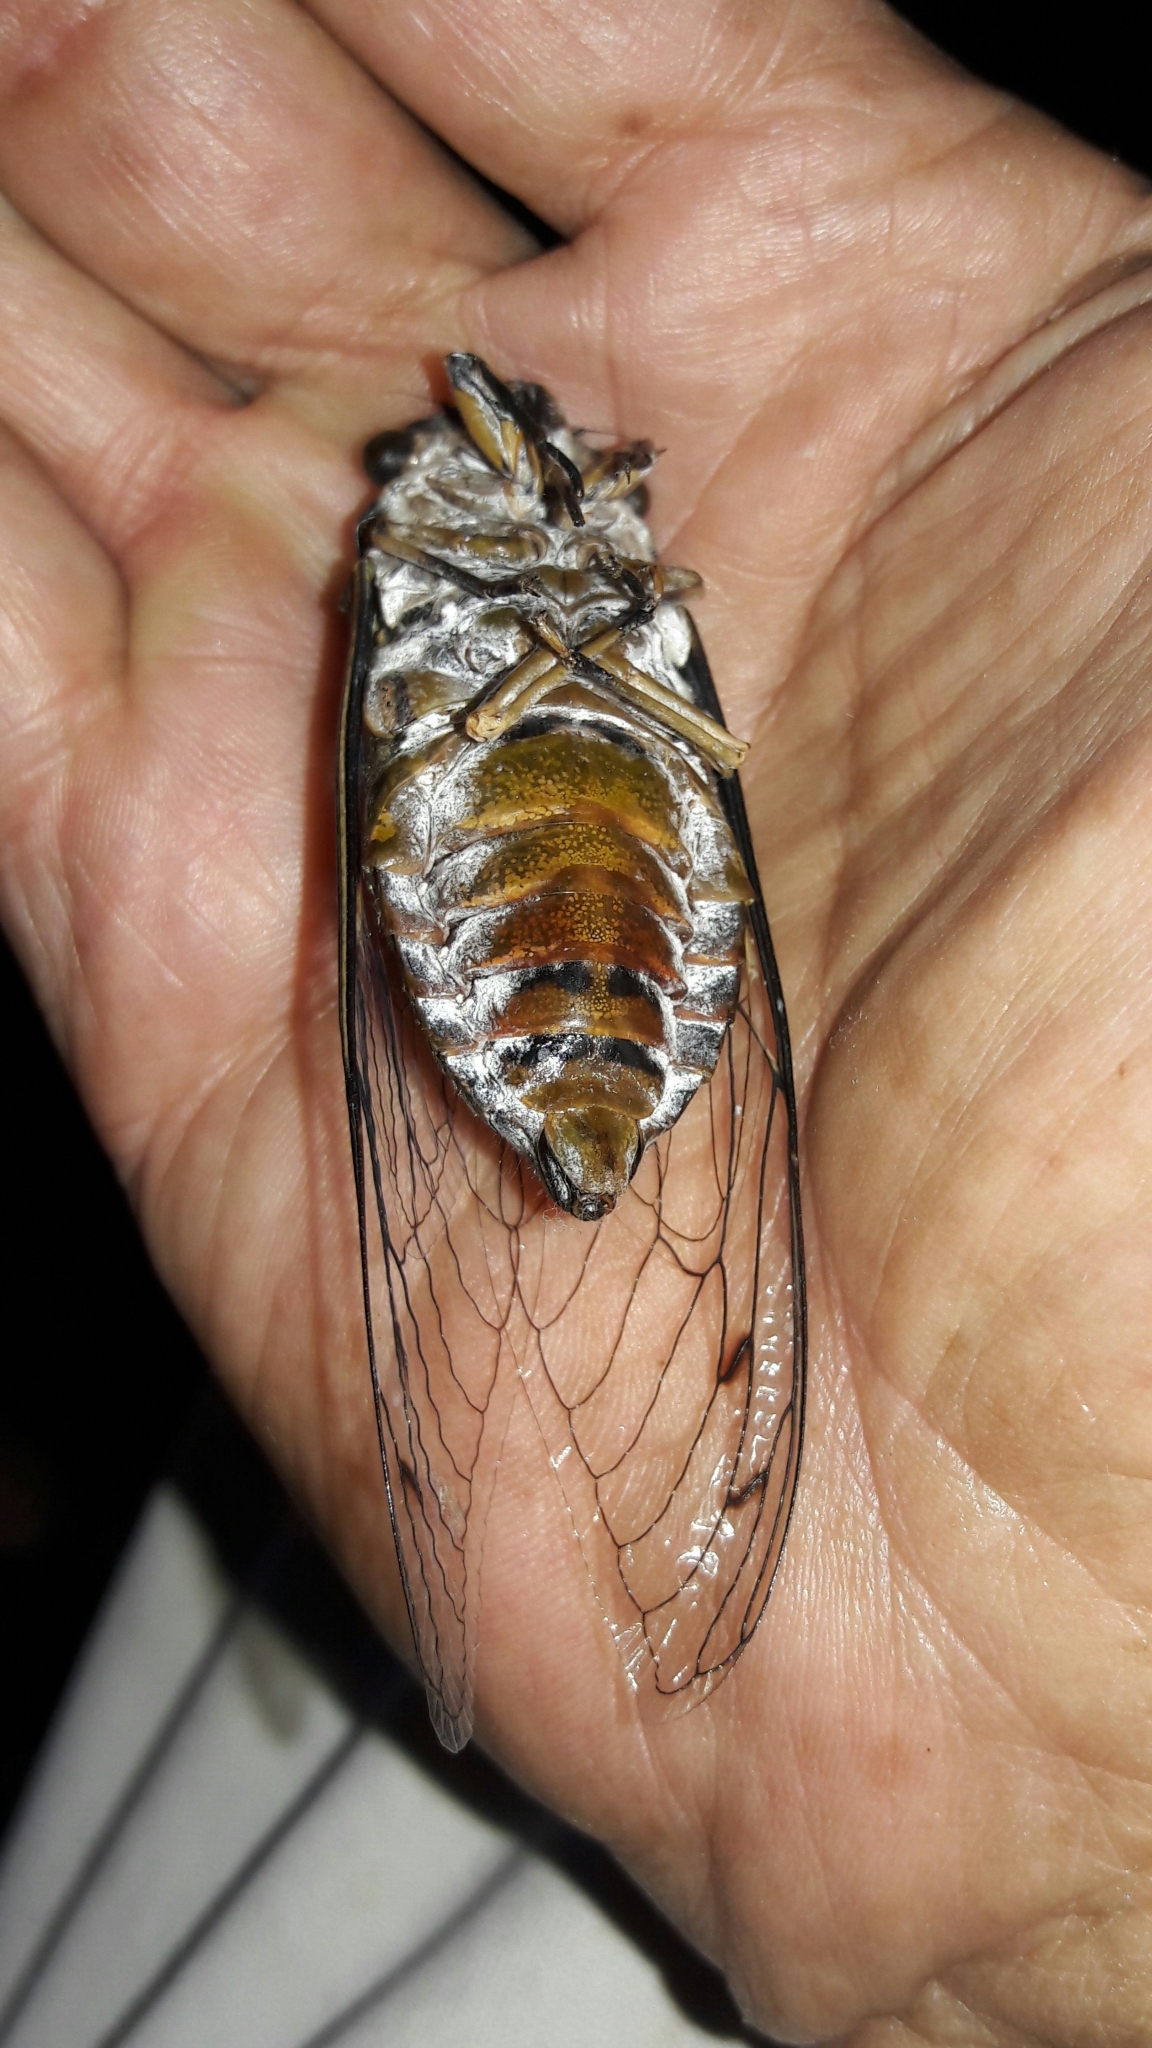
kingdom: Animalia
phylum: Arthropoda
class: Insecta
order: Hemiptera
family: Cicadidae
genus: Quesada
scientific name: Quesada gigas
